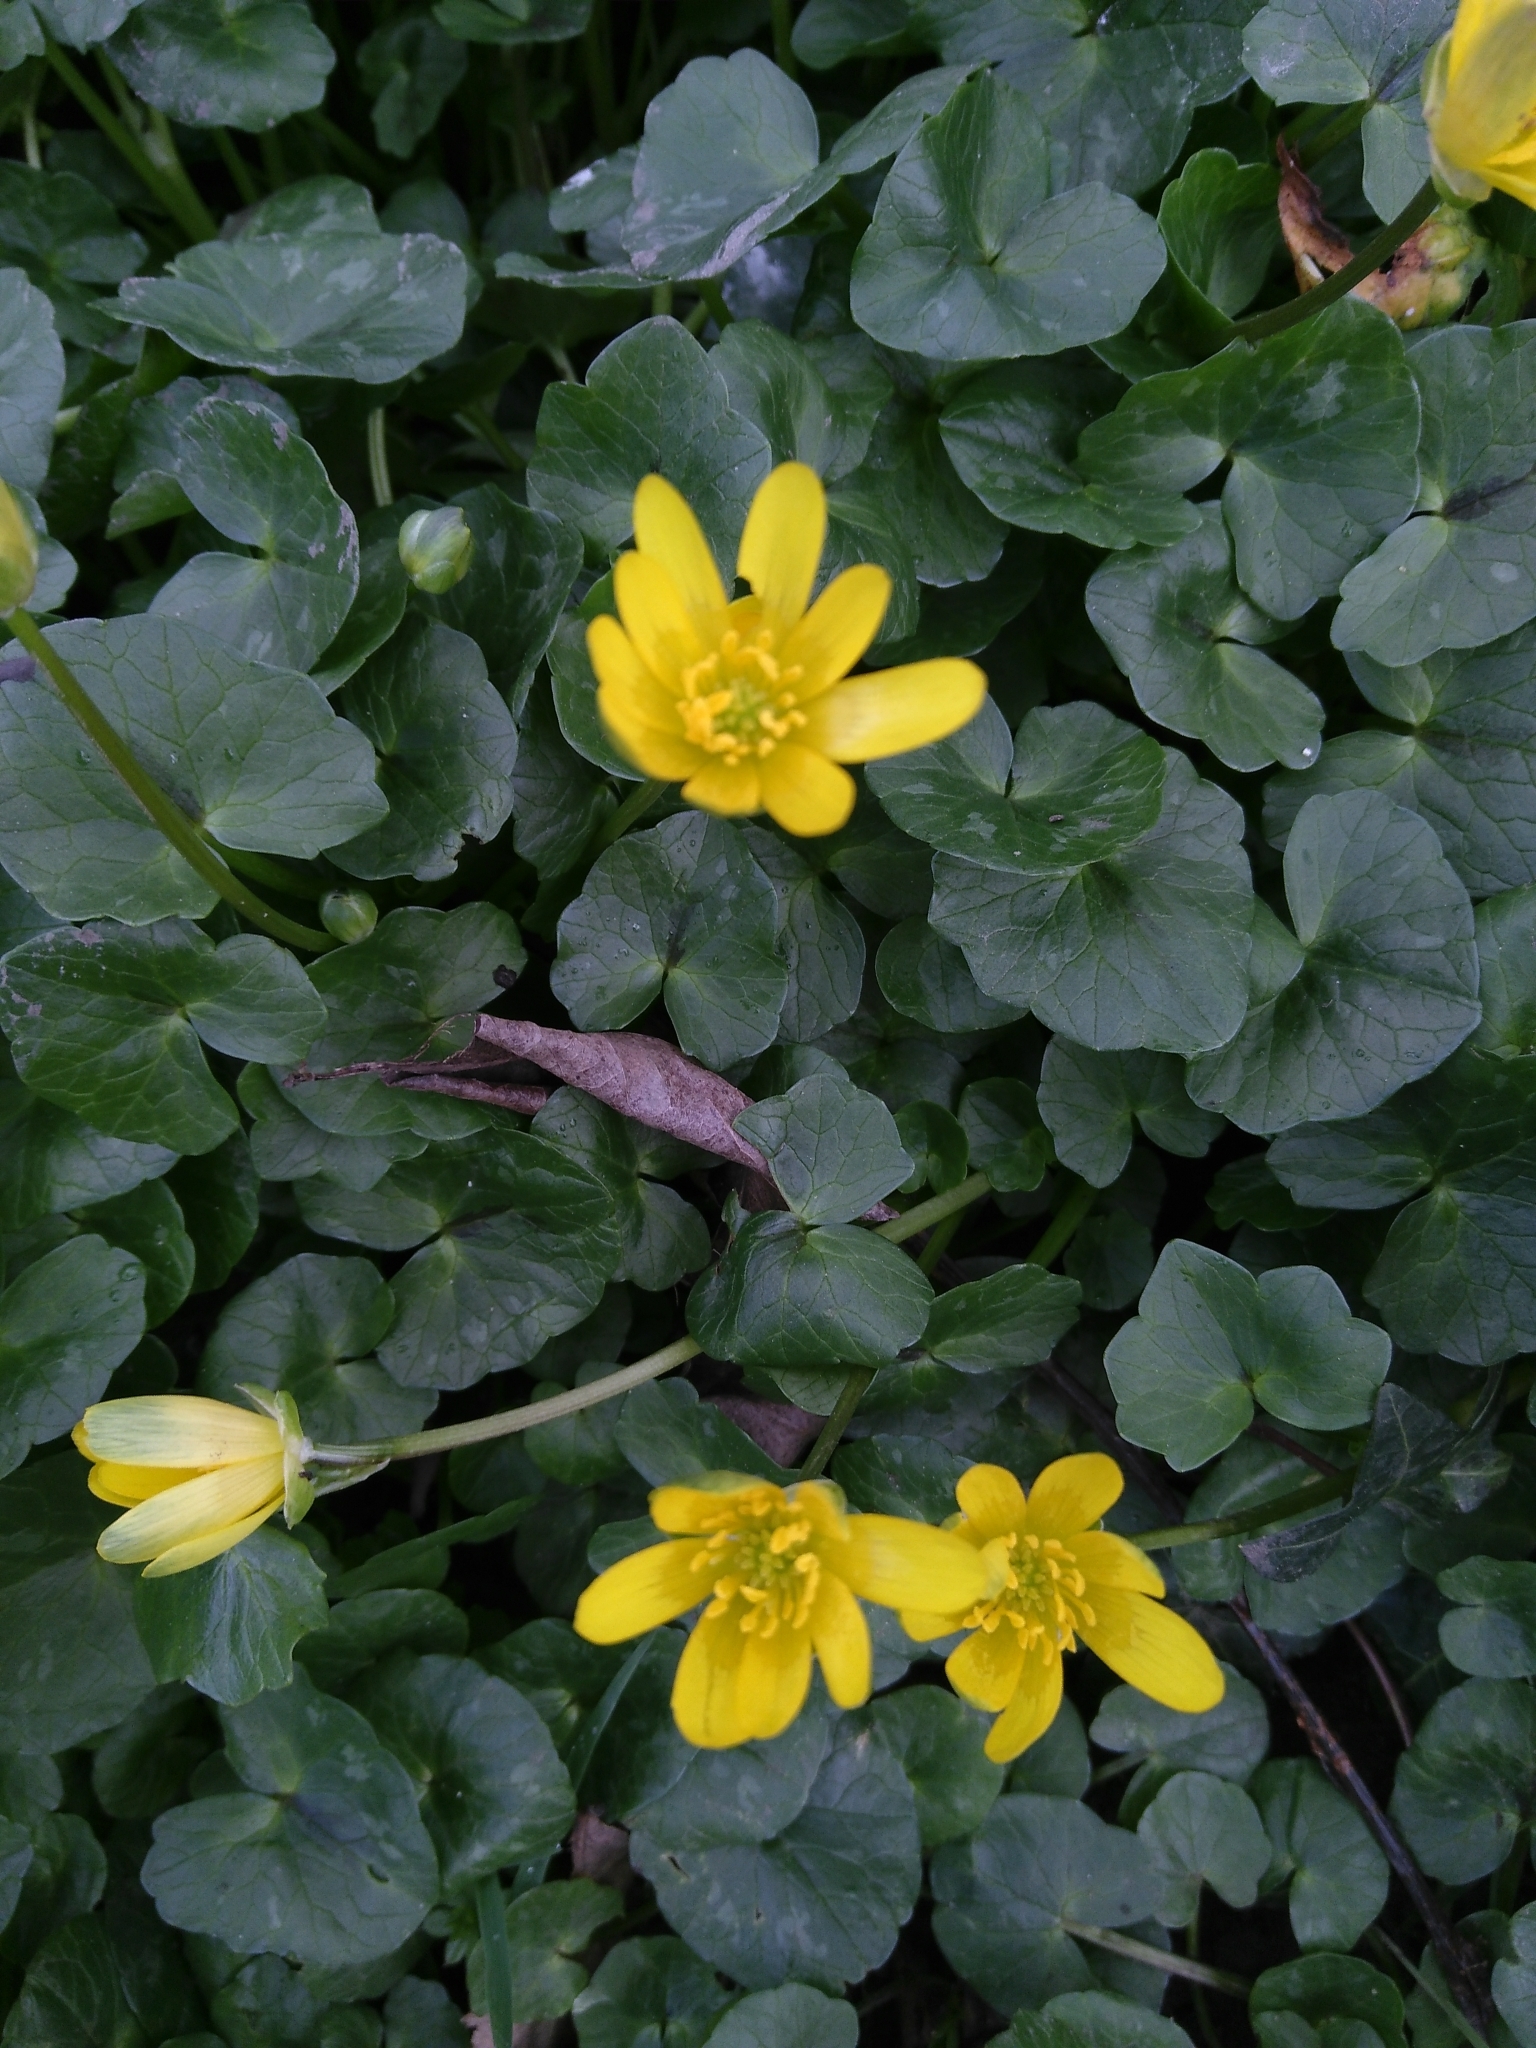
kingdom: Plantae
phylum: Tracheophyta
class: Magnoliopsida
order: Ranunculales
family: Ranunculaceae
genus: Ficaria
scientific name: Ficaria verna
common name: Lesser celandine
